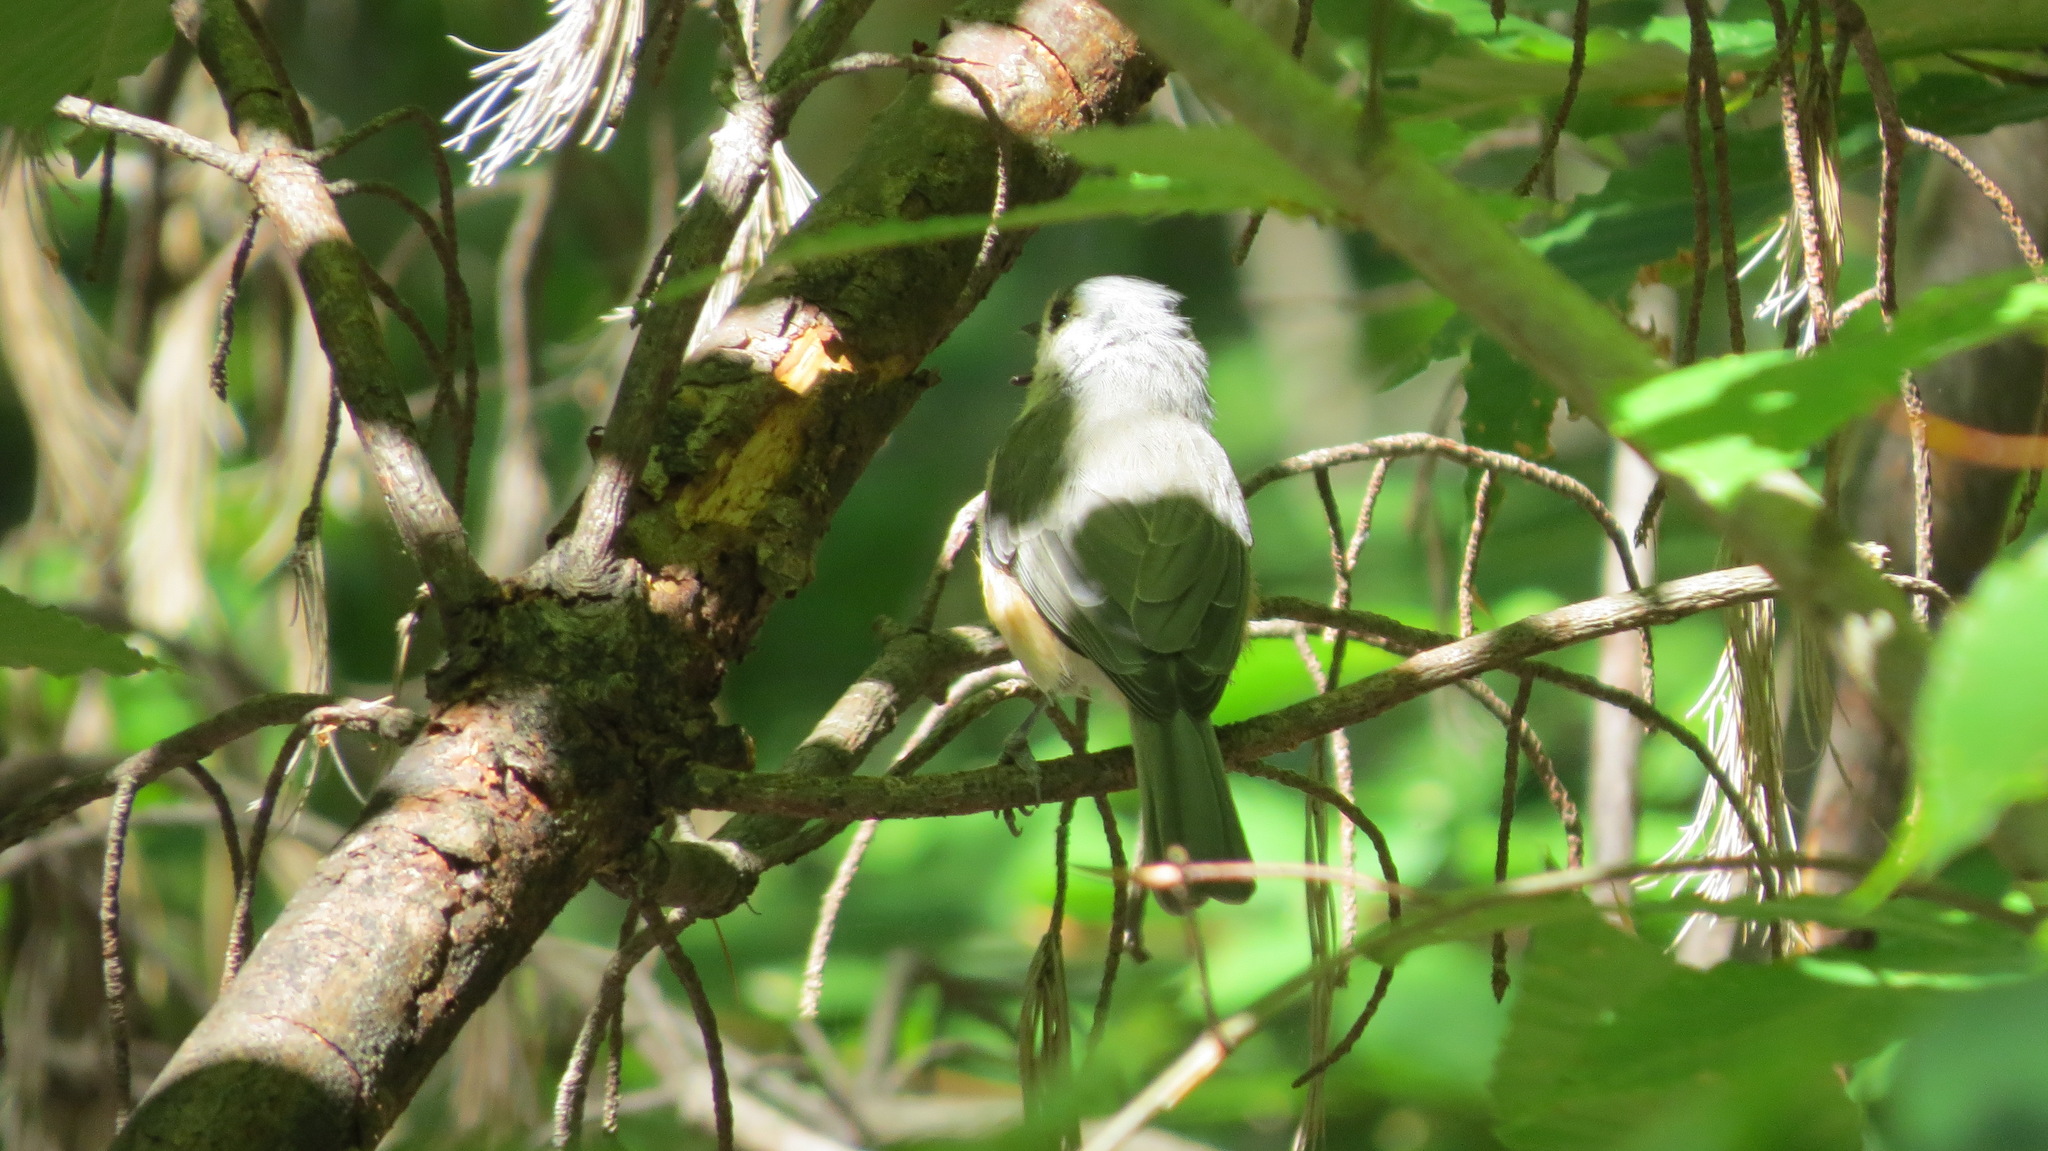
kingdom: Animalia
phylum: Chordata
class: Aves
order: Passeriformes
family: Paridae
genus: Baeolophus
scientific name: Baeolophus bicolor
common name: Tufted titmouse
